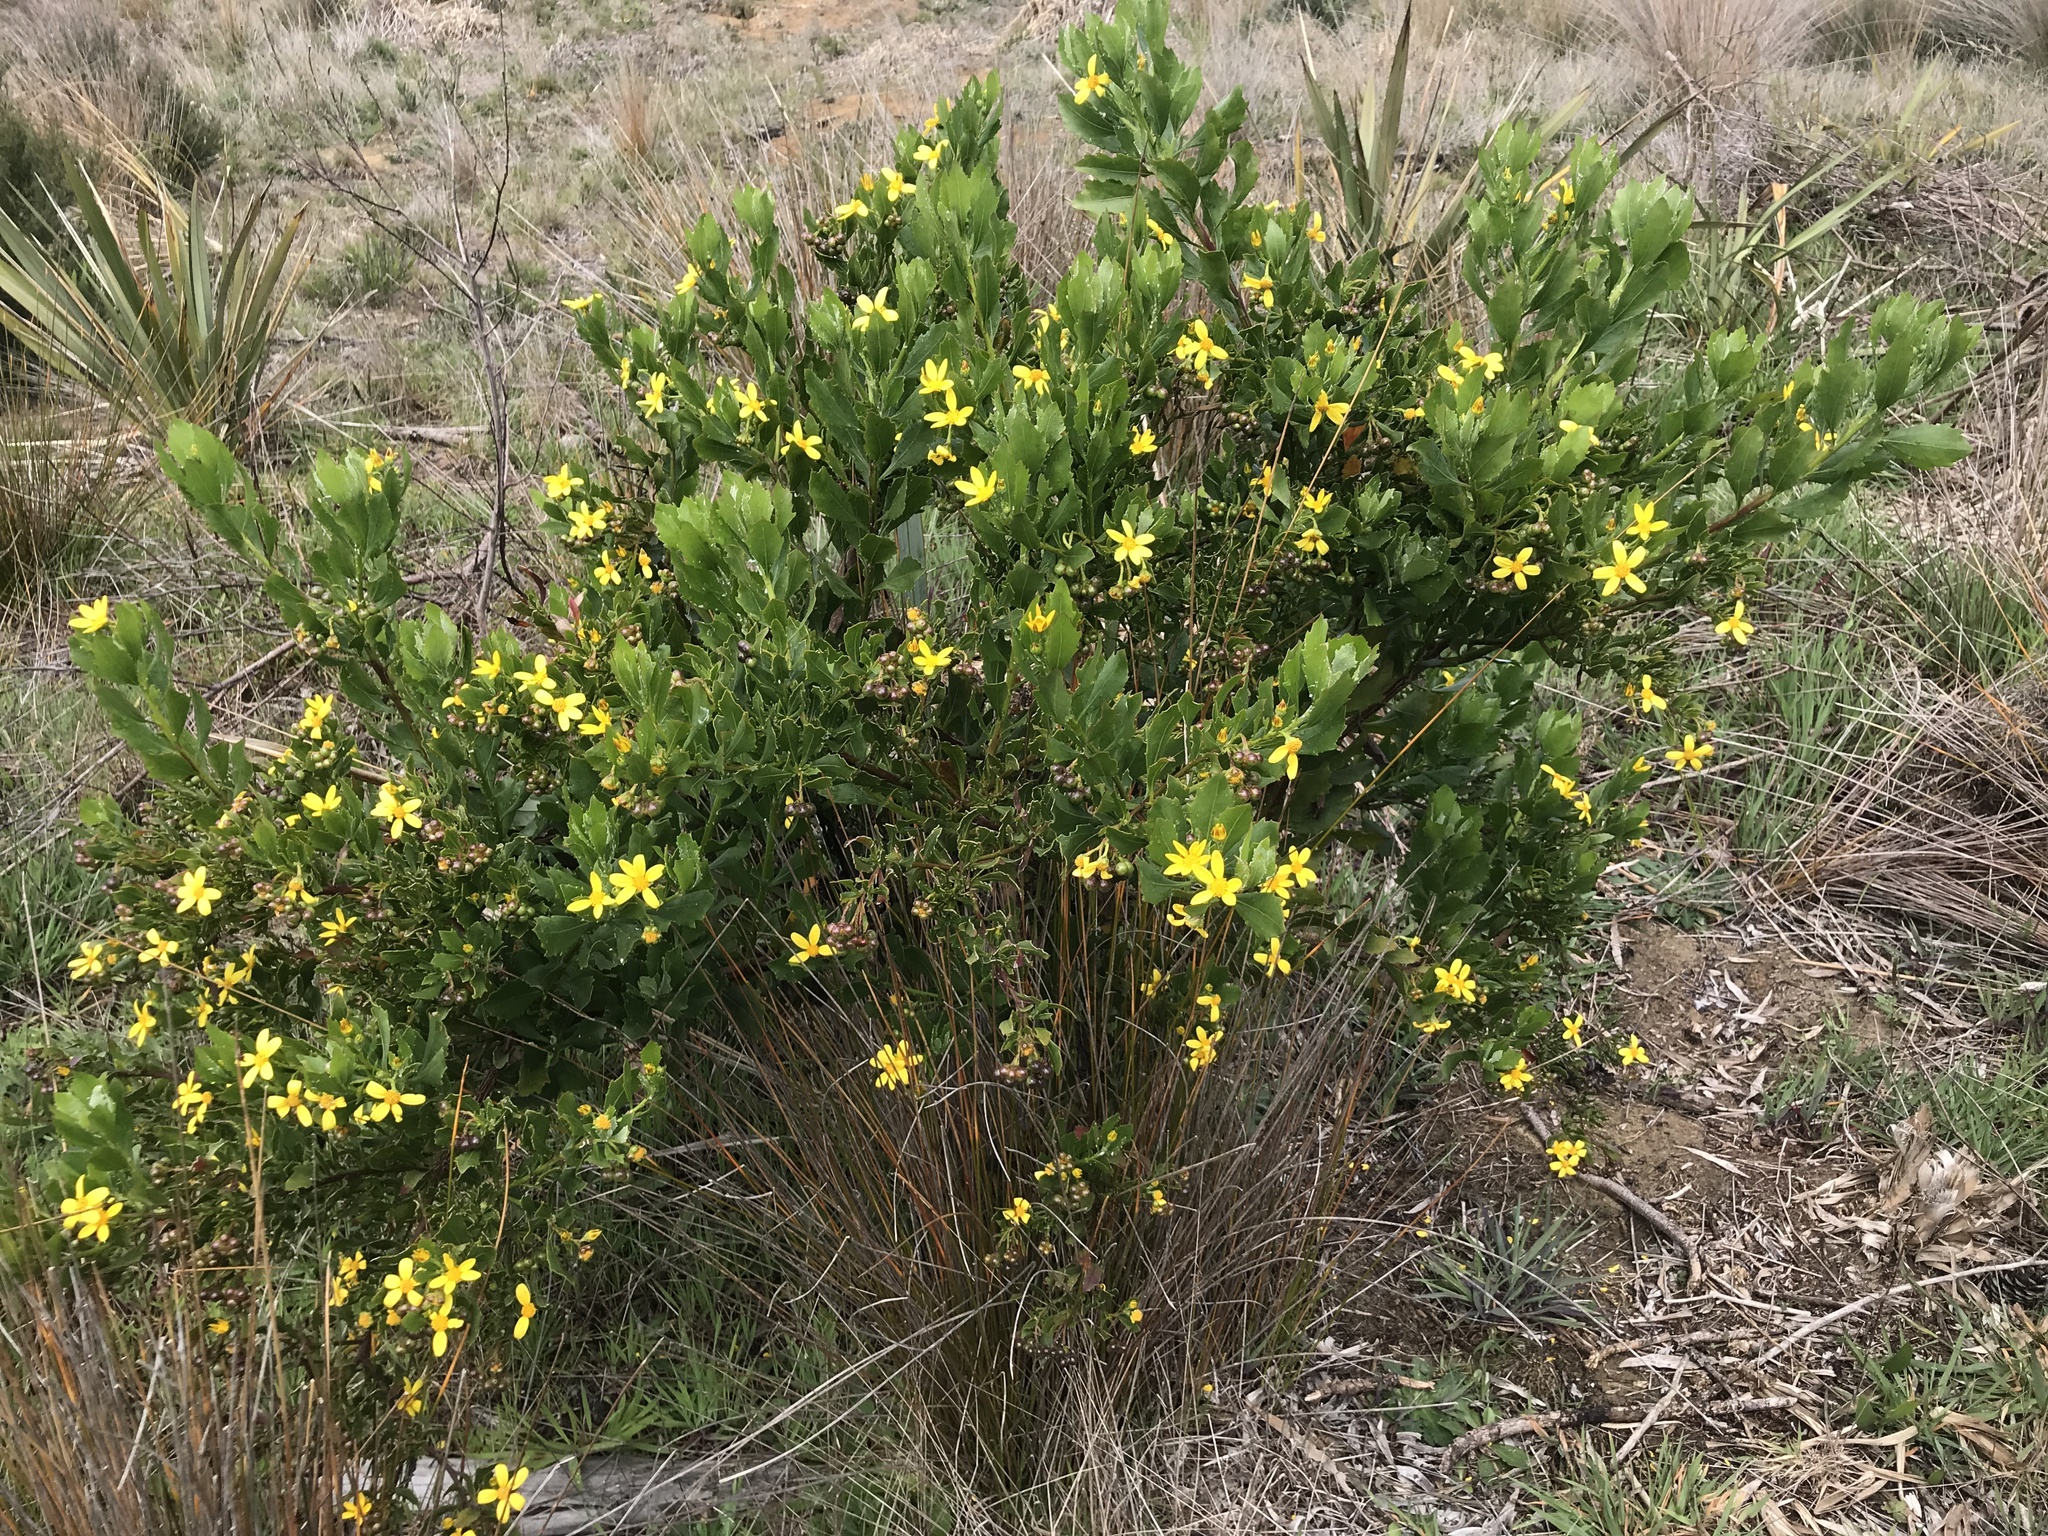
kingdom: Plantae
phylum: Tracheophyta
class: Magnoliopsida
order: Asterales
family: Asteraceae
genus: Osteospermum
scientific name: Osteospermum moniliferum
